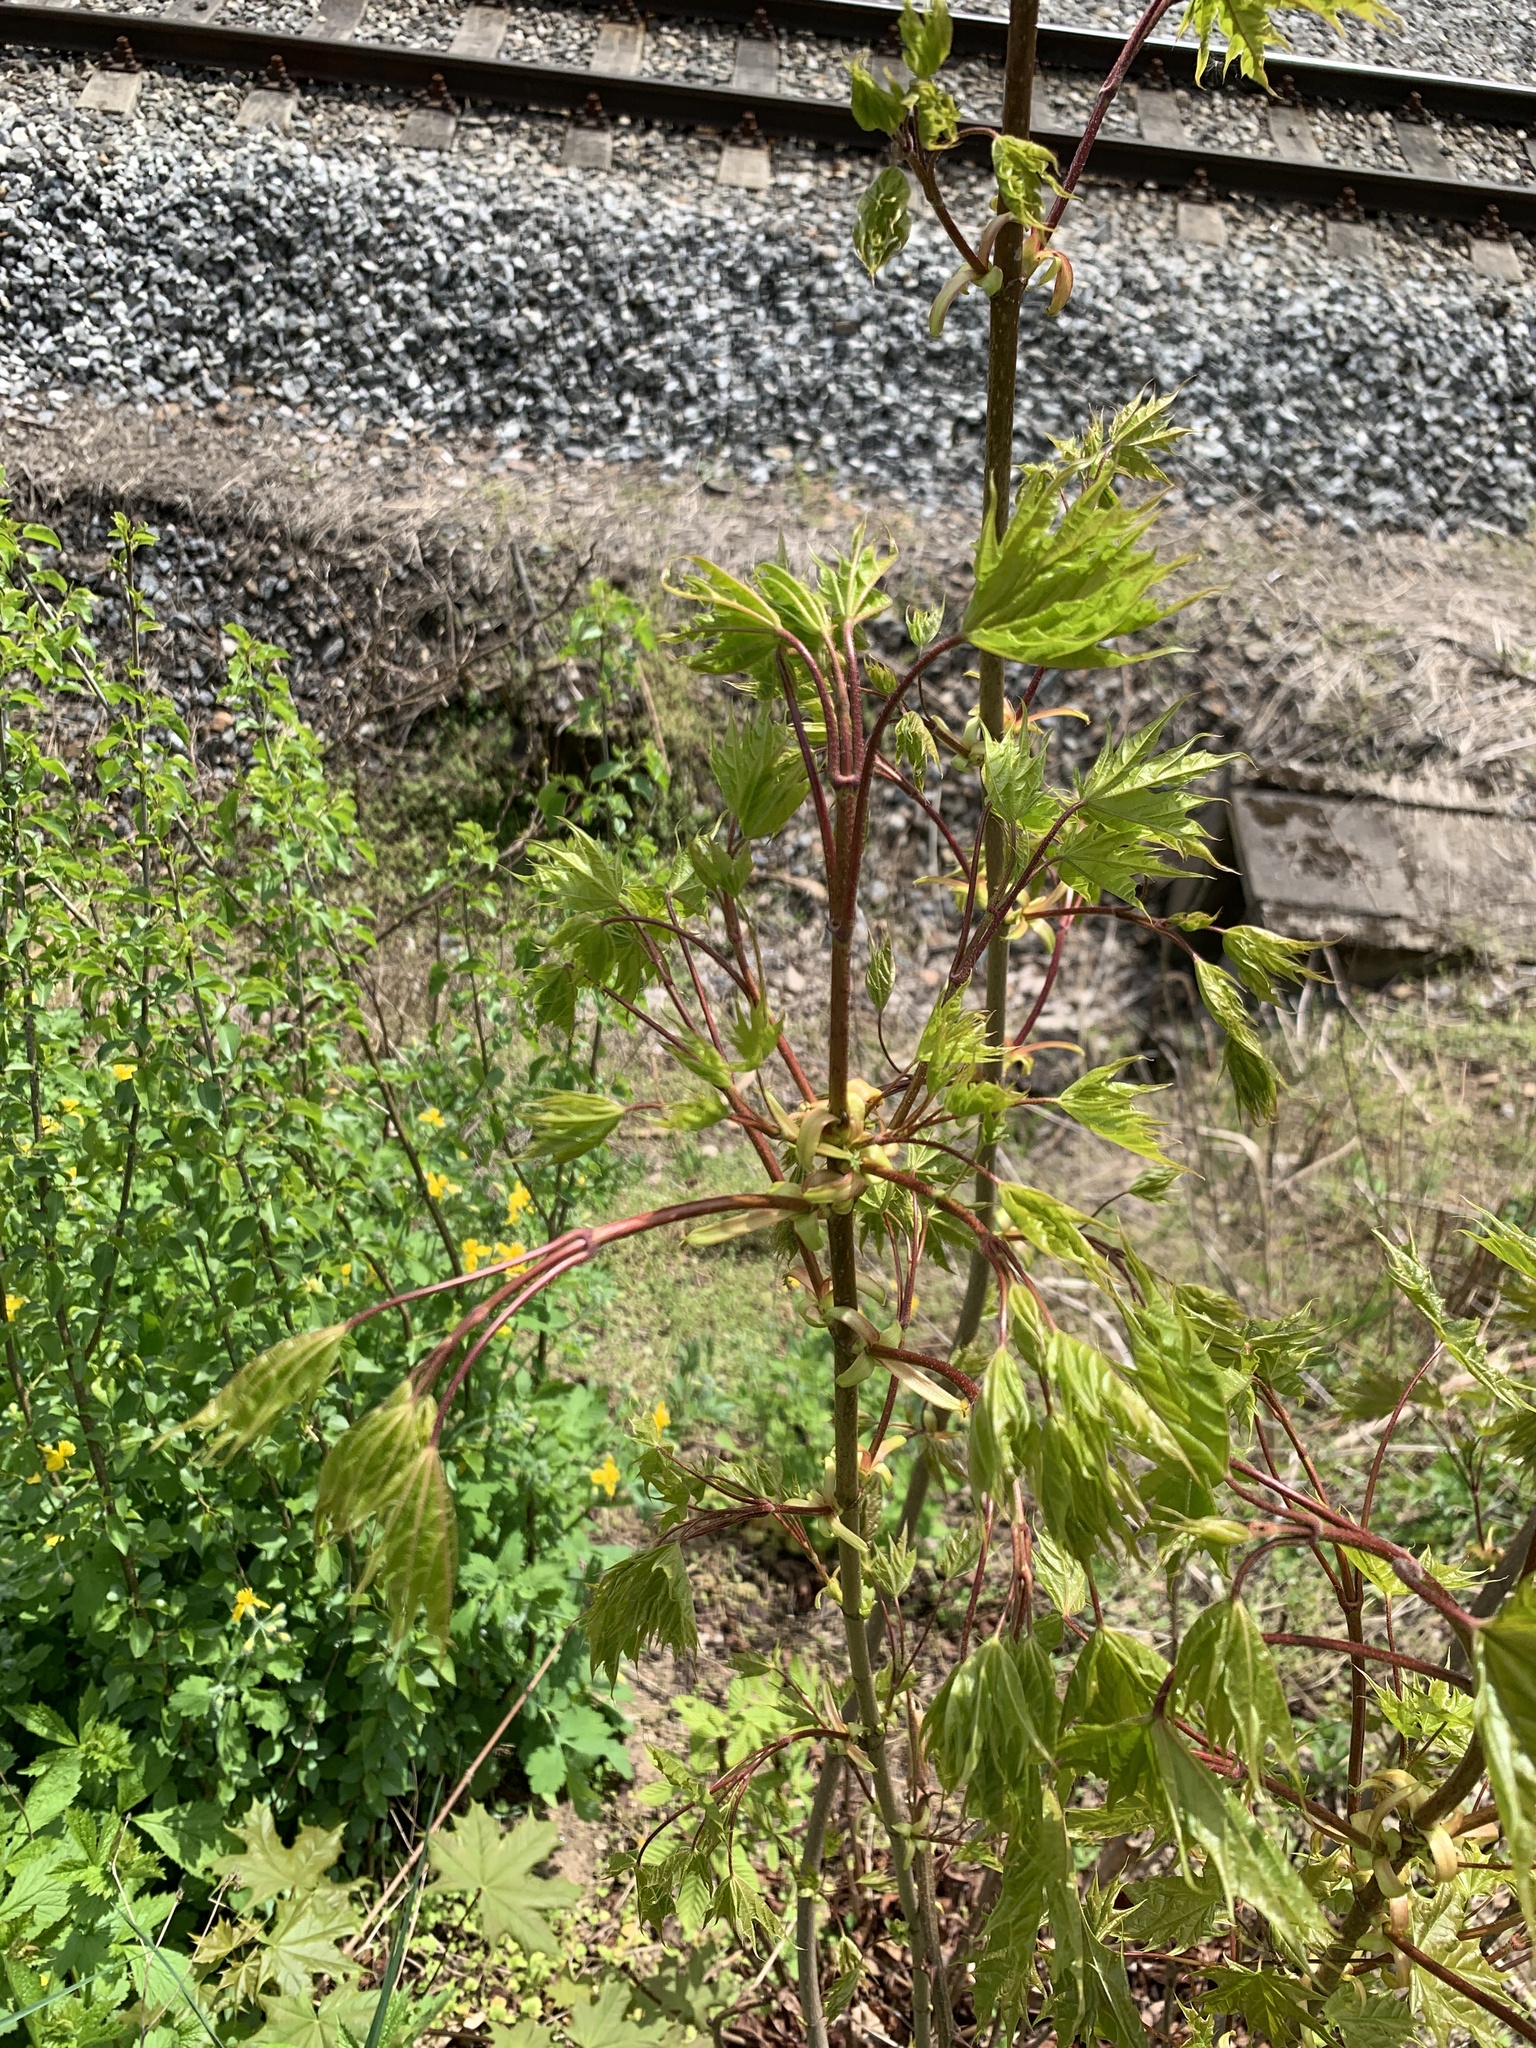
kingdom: Plantae
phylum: Tracheophyta
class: Magnoliopsida
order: Sapindales
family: Sapindaceae
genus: Acer
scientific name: Acer platanoides
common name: Norway maple
